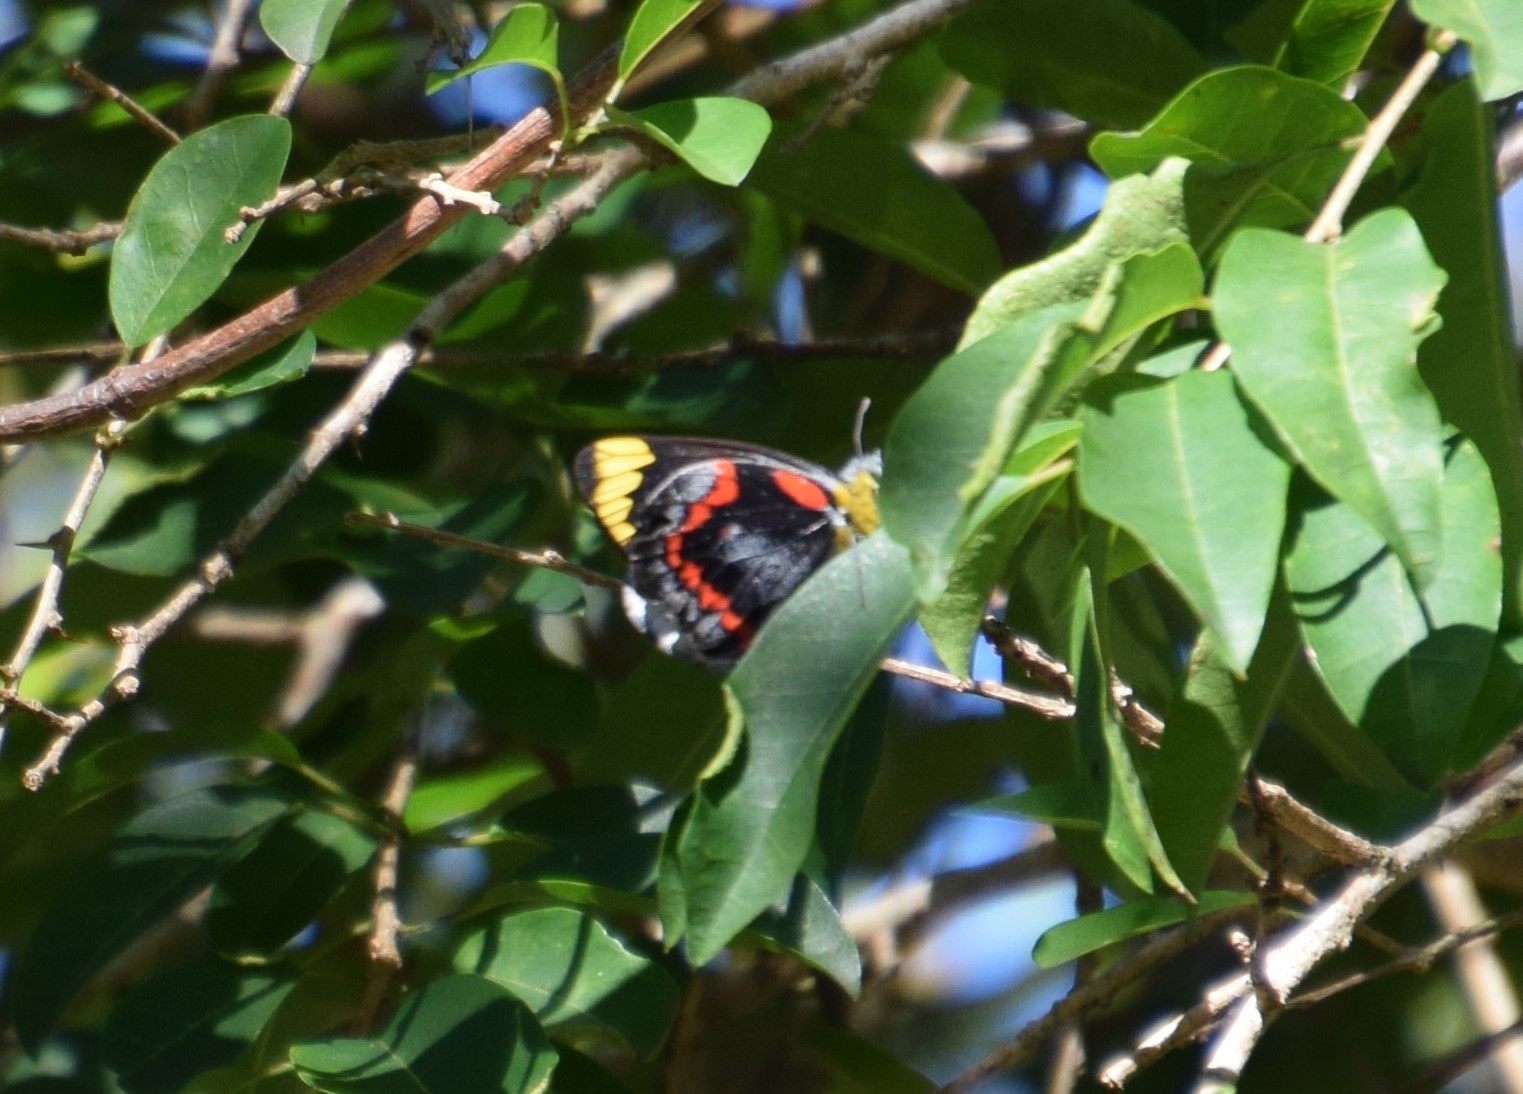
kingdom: Animalia
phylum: Arthropoda
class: Insecta
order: Lepidoptera
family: Pieridae
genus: Delias
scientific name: Delias nigrina
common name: Black jezebel
